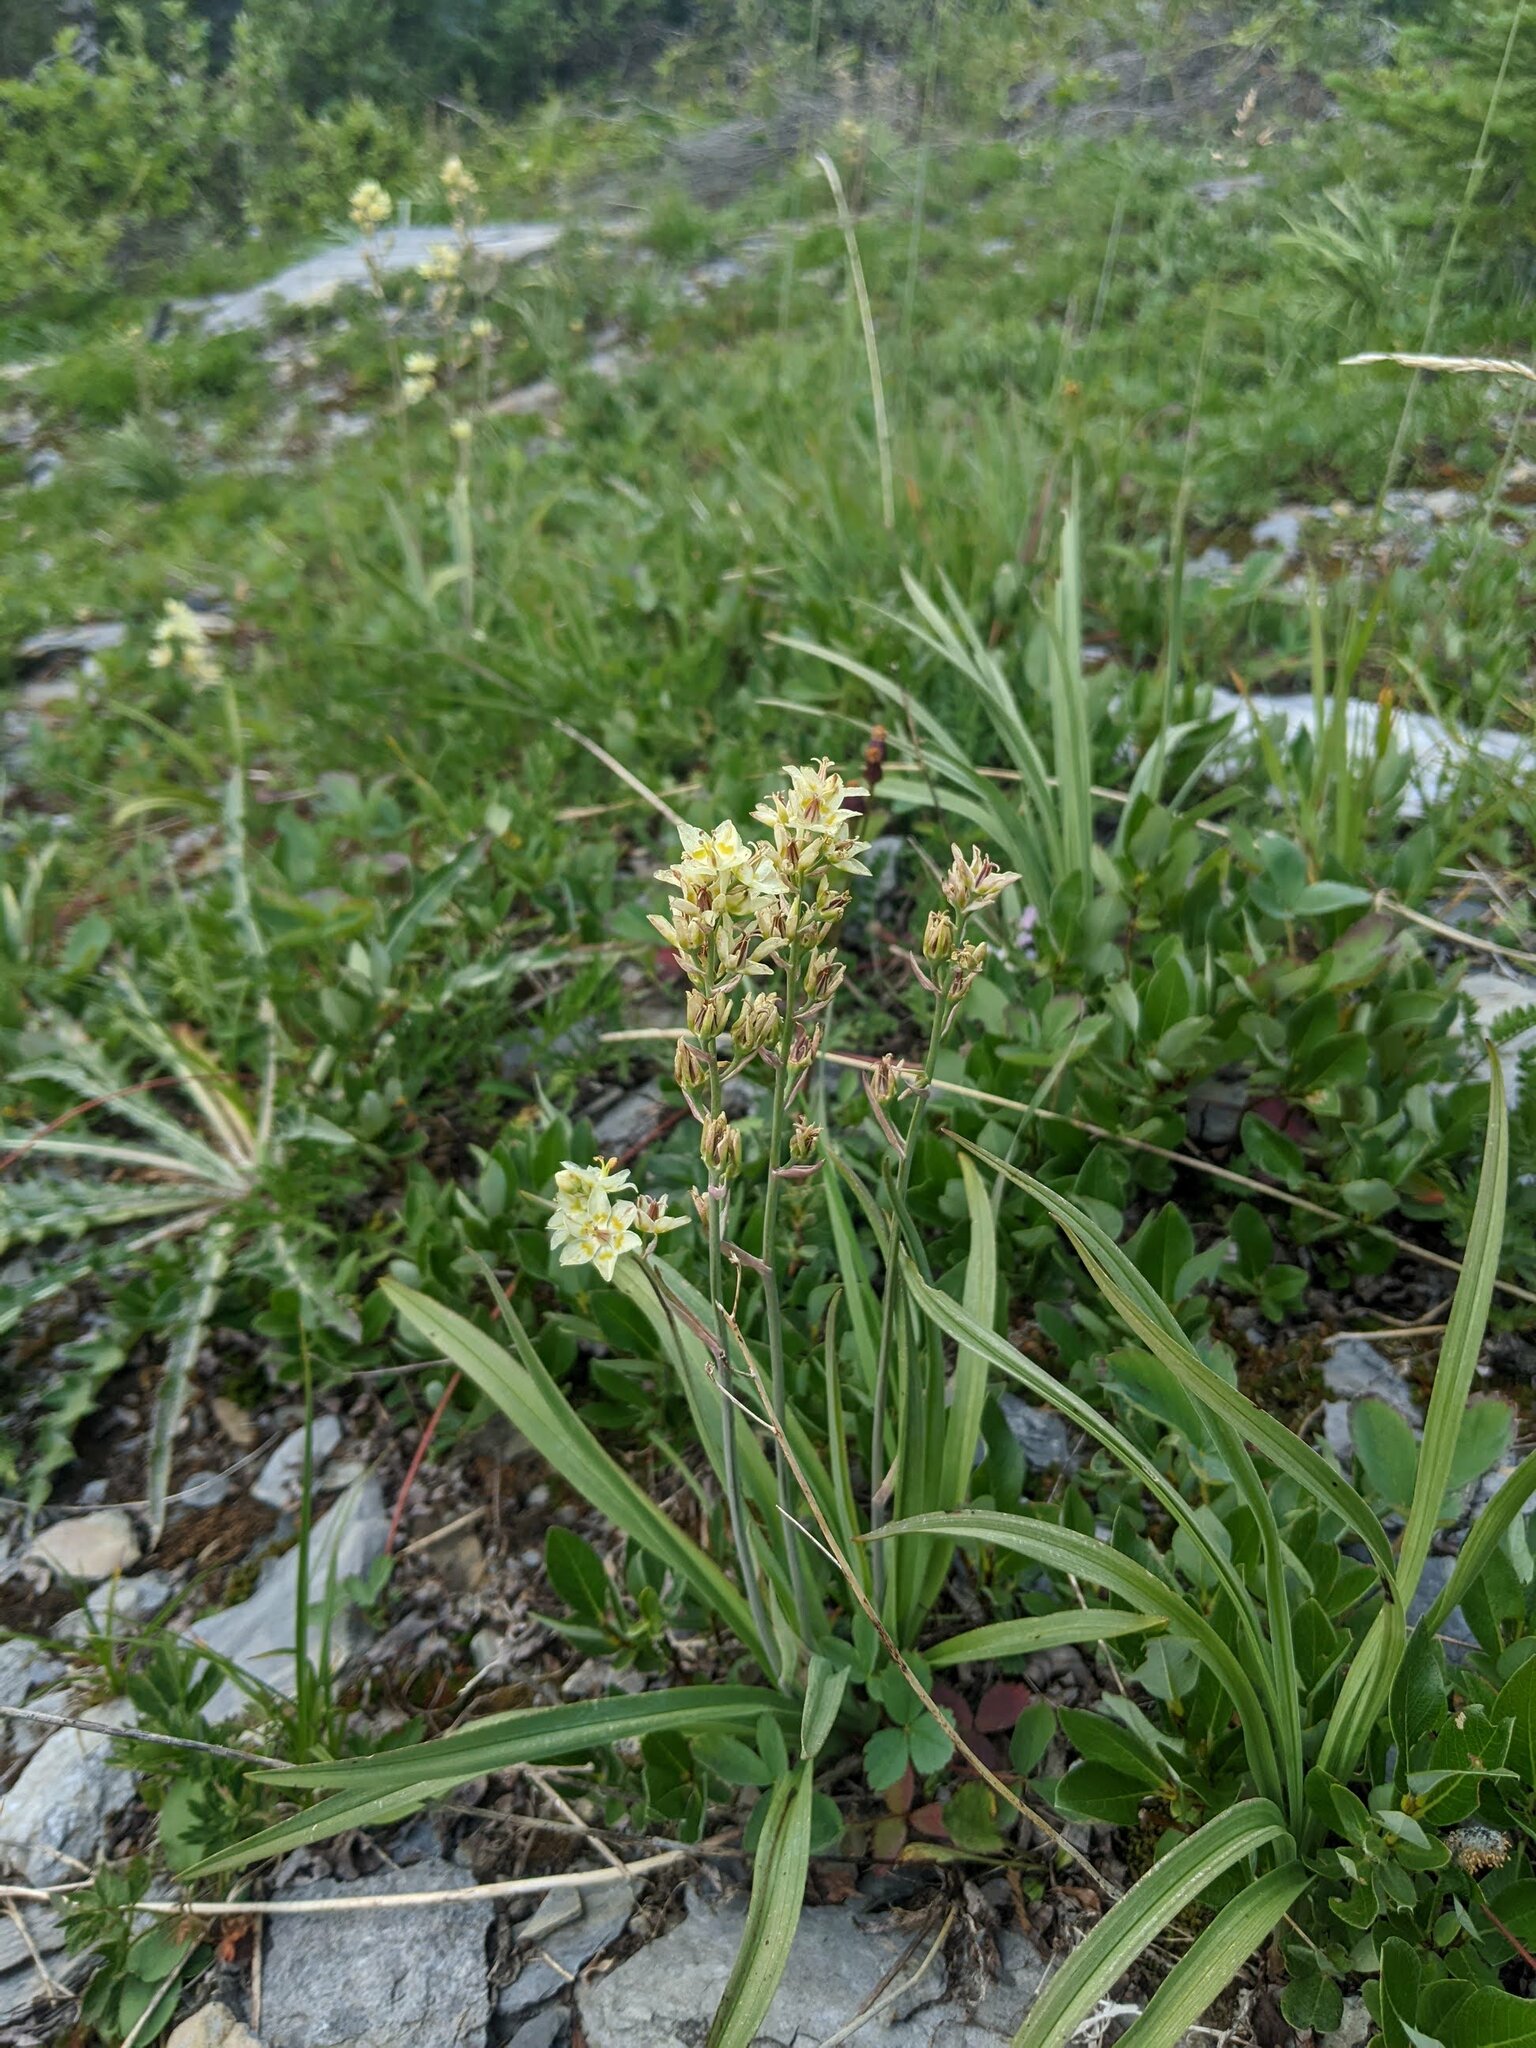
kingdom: Plantae
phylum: Tracheophyta
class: Liliopsida
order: Liliales
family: Melanthiaceae
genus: Anticlea
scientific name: Anticlea elegans
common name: Mountain death camas
